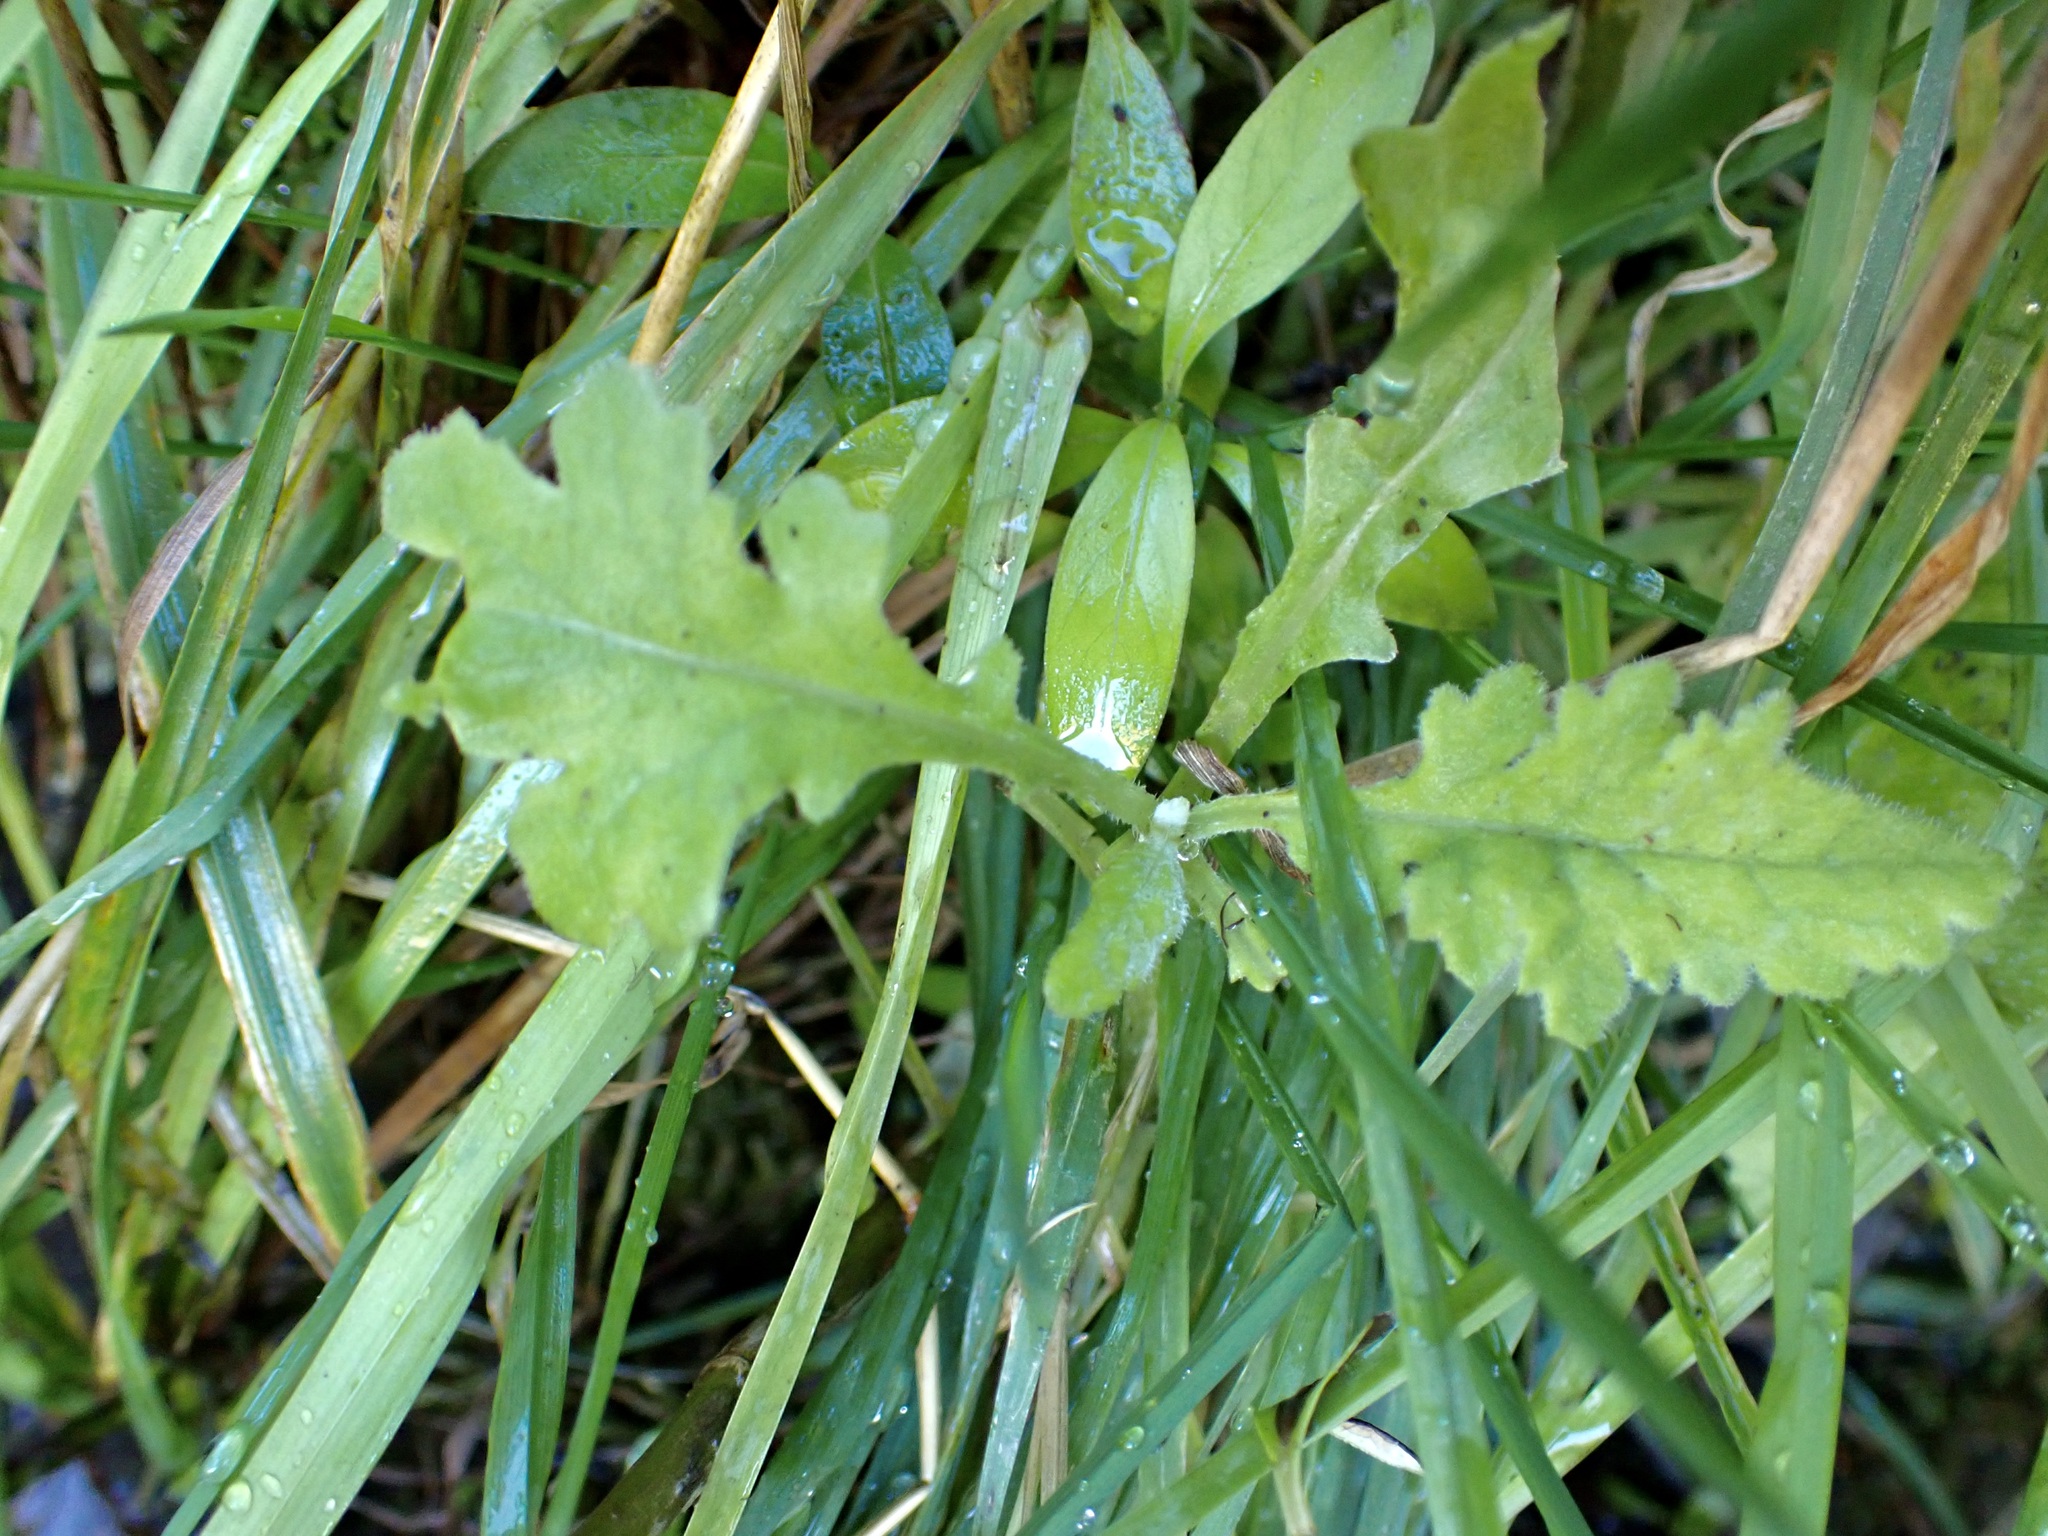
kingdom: Plantae
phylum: Tracheophyta
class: Magnoliopsida
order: Asterales
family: Asteraceae
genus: Senecio
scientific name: Senecio glomeratus
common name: Cutleaf burnweed
